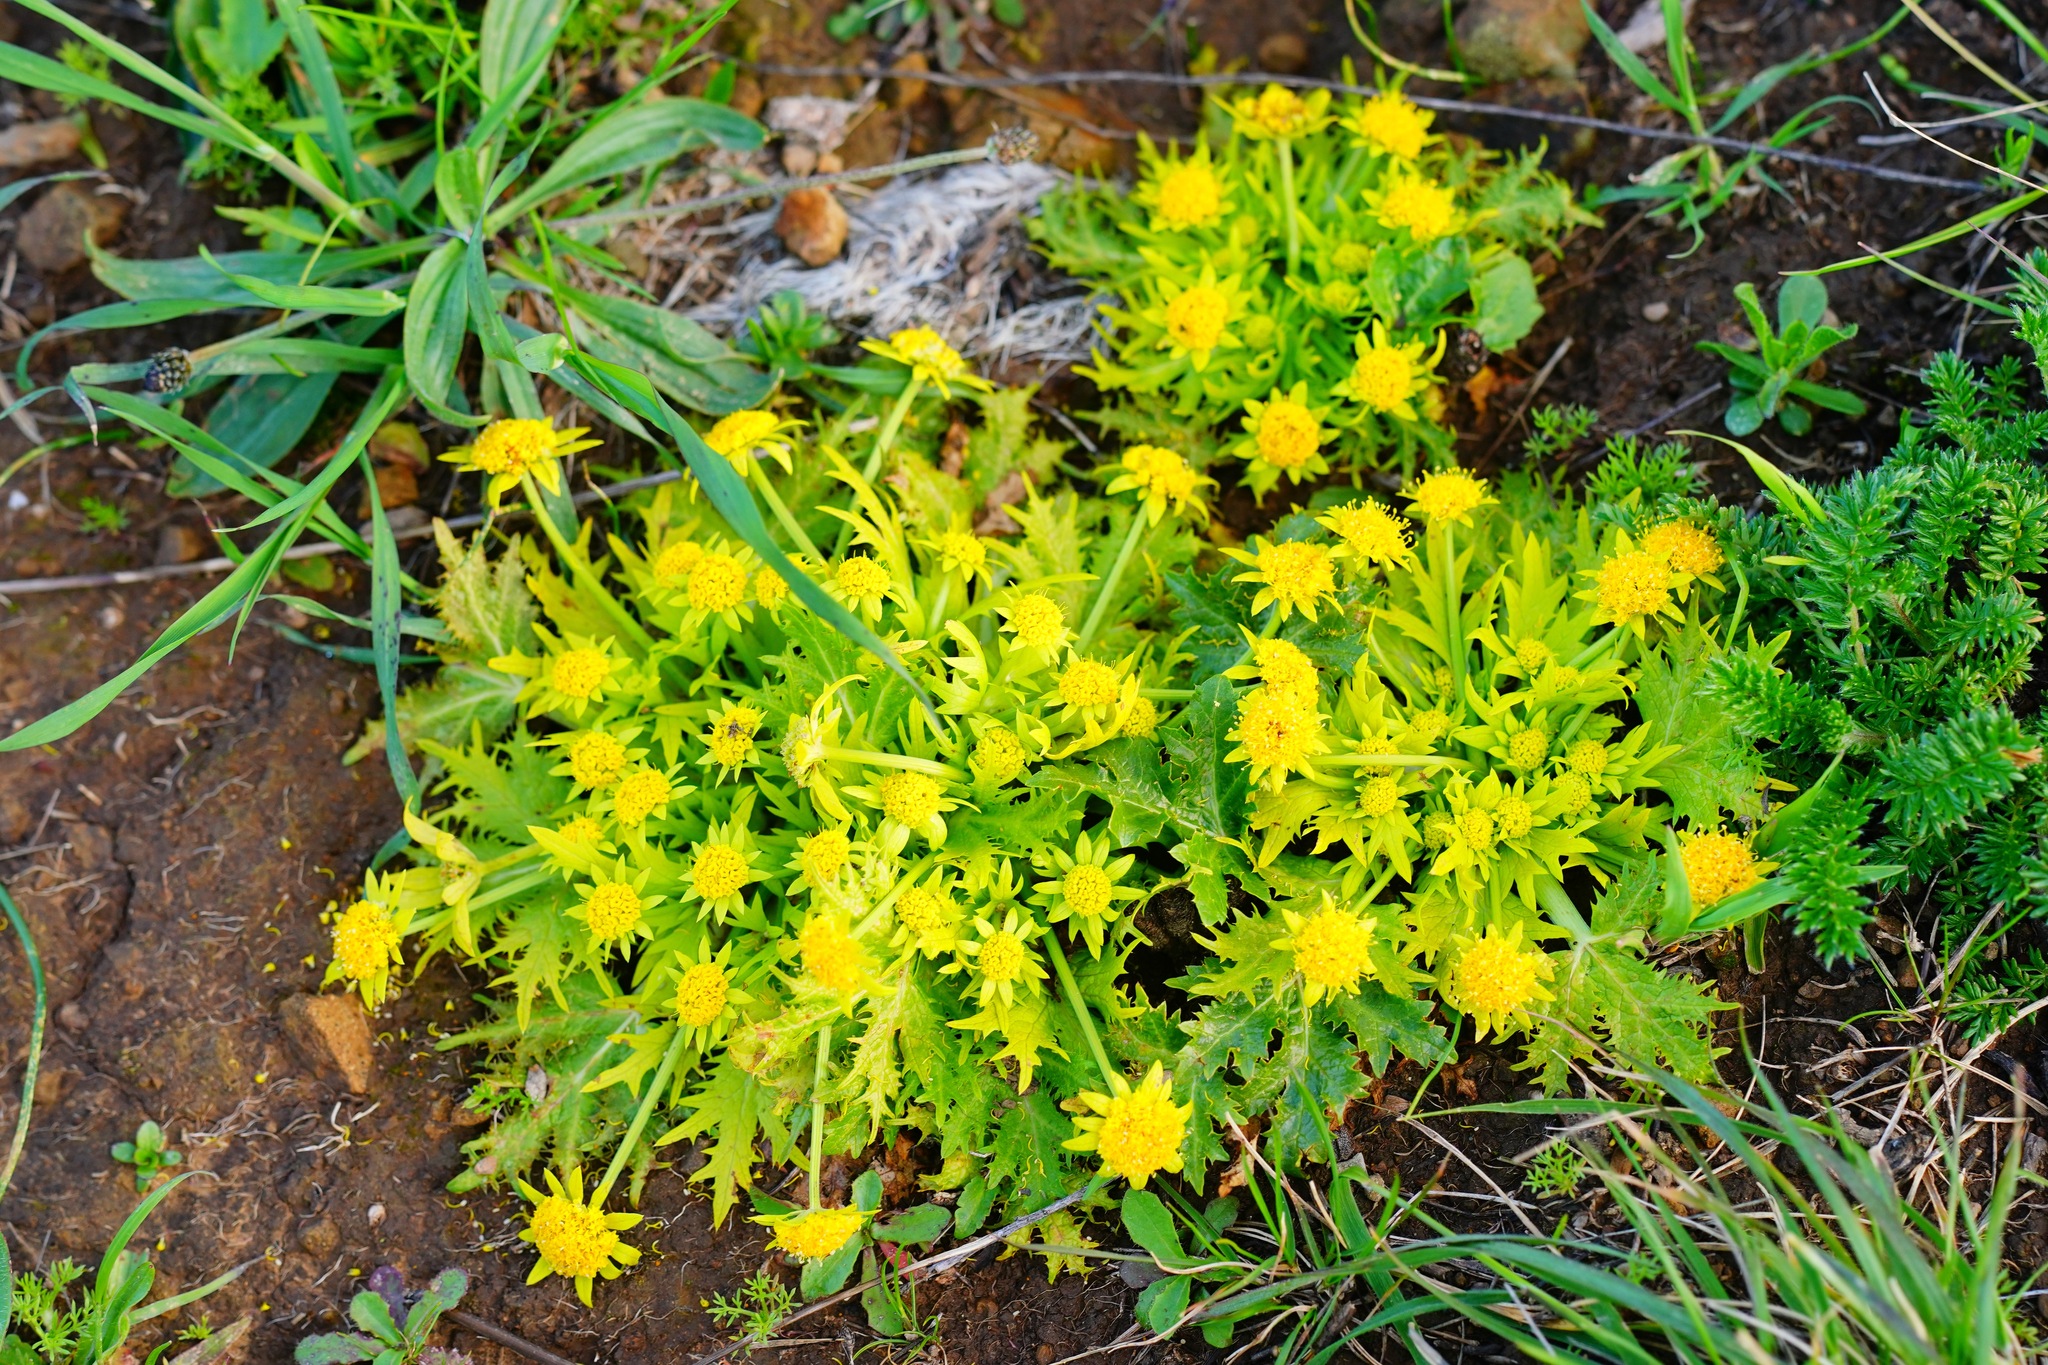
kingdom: Plantae
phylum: Tracheophyta
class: Magnoliopsida
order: Apiales
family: Apiaceae
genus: Sanicula
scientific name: Sanicula arctopoides
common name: Footsteps-of-spring
